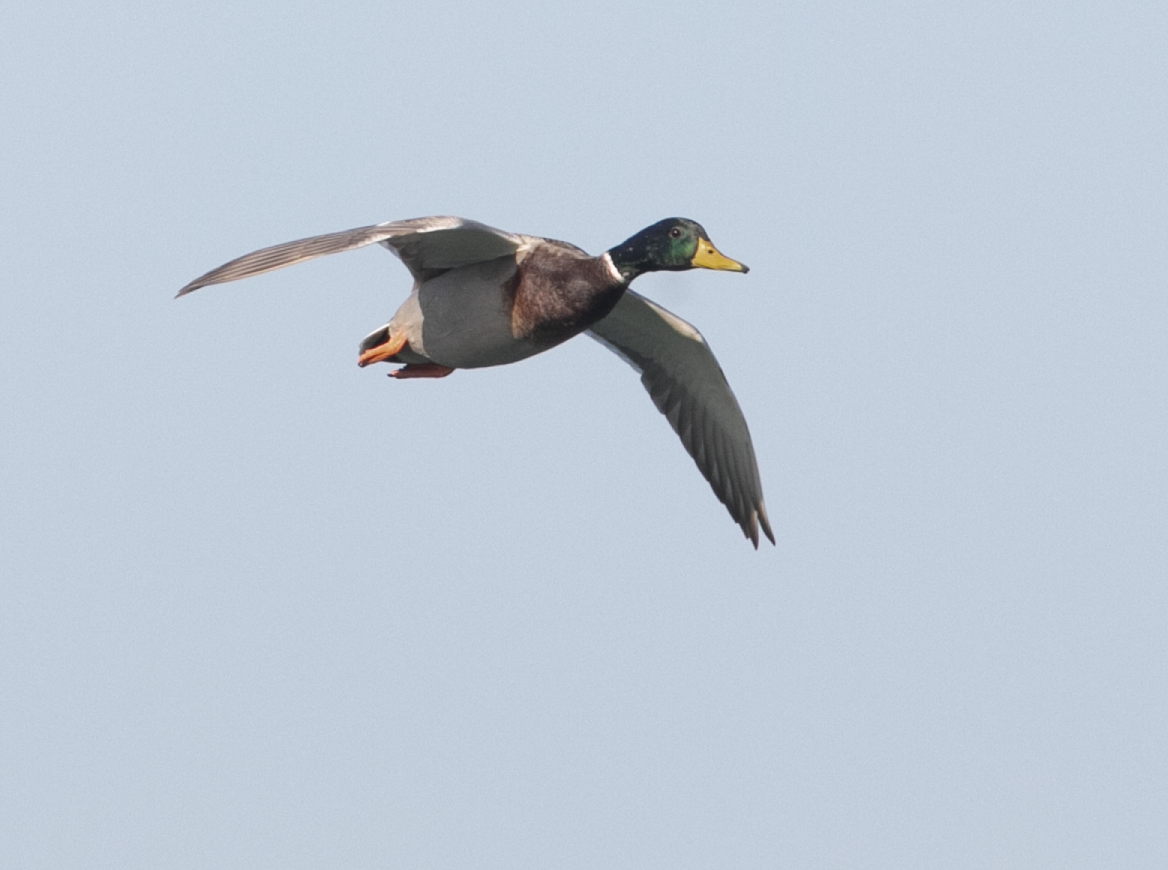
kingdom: Animalia
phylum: Chordata
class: Aves
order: Anseriformes
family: Anatidae
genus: Anas
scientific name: Anas platyrhynchos
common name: Mallard
